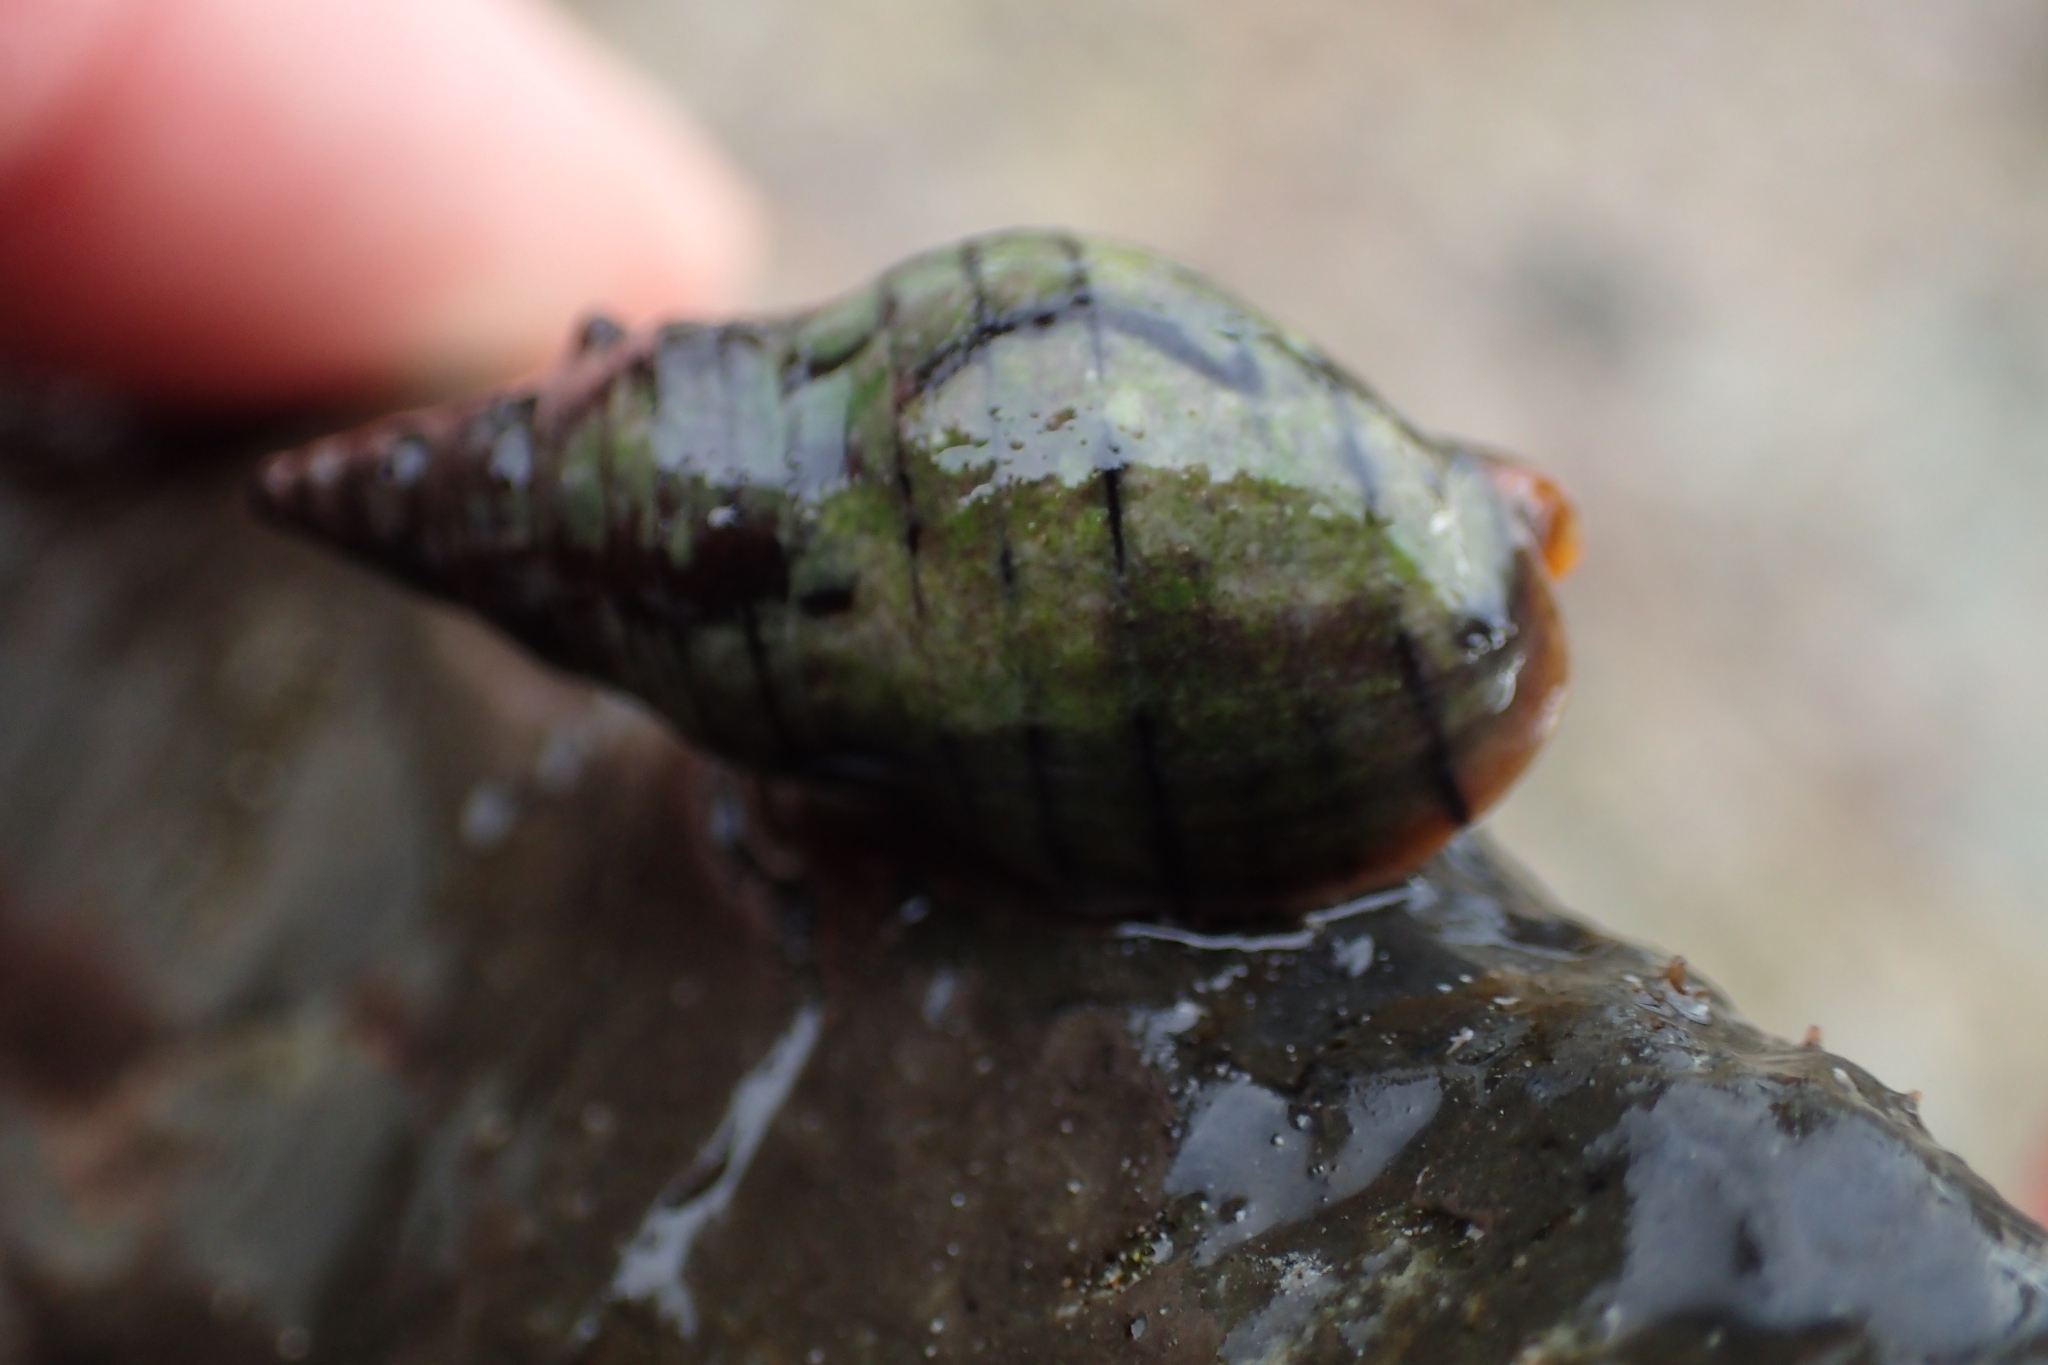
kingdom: Animalia
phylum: Mollusca
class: Gastropoda
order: Neogastropoda
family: Cominellidae
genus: Cominella
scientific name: Cominella virgata
